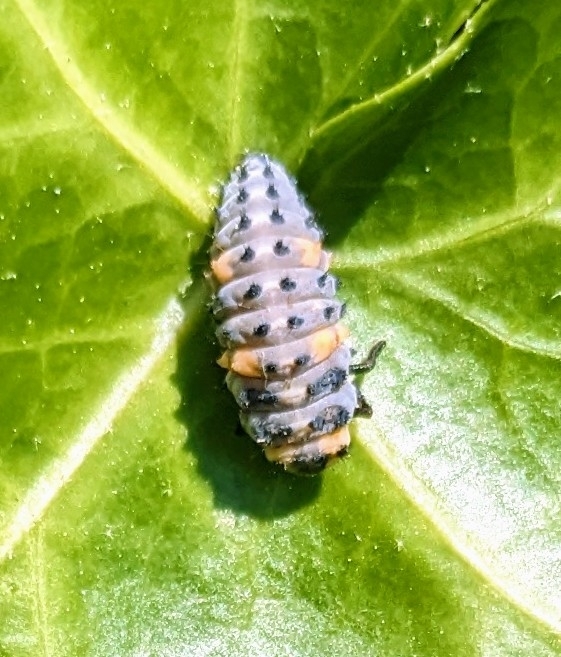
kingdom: Animalia
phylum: Arthropoda
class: Insecta
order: Coleoptera
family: Coccinellidae
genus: Coccinella
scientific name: Coccinella septempunctata
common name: Sevenspotted lady beetle
